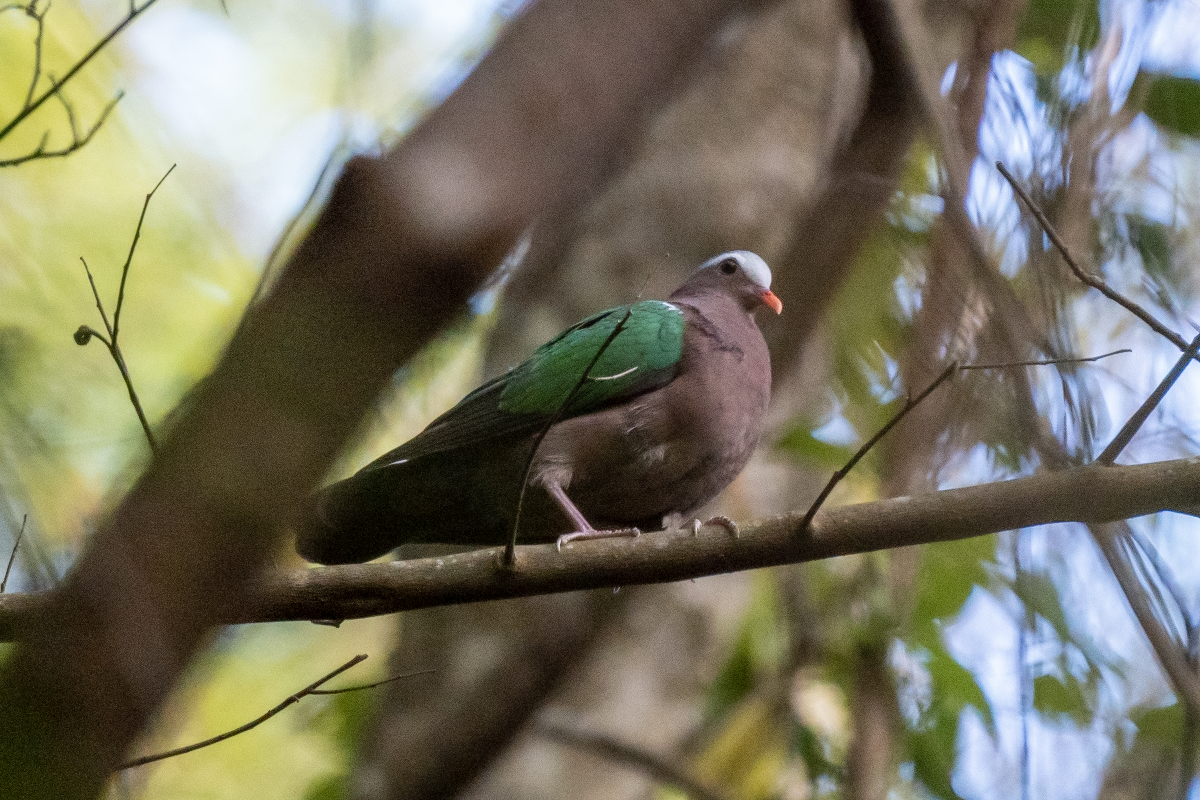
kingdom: Animalia
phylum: Chordata
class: Aves
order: Columbiformes
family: Columbidae
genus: Chalcophaps
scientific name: Chalcophaps indica
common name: Common emerald dove
